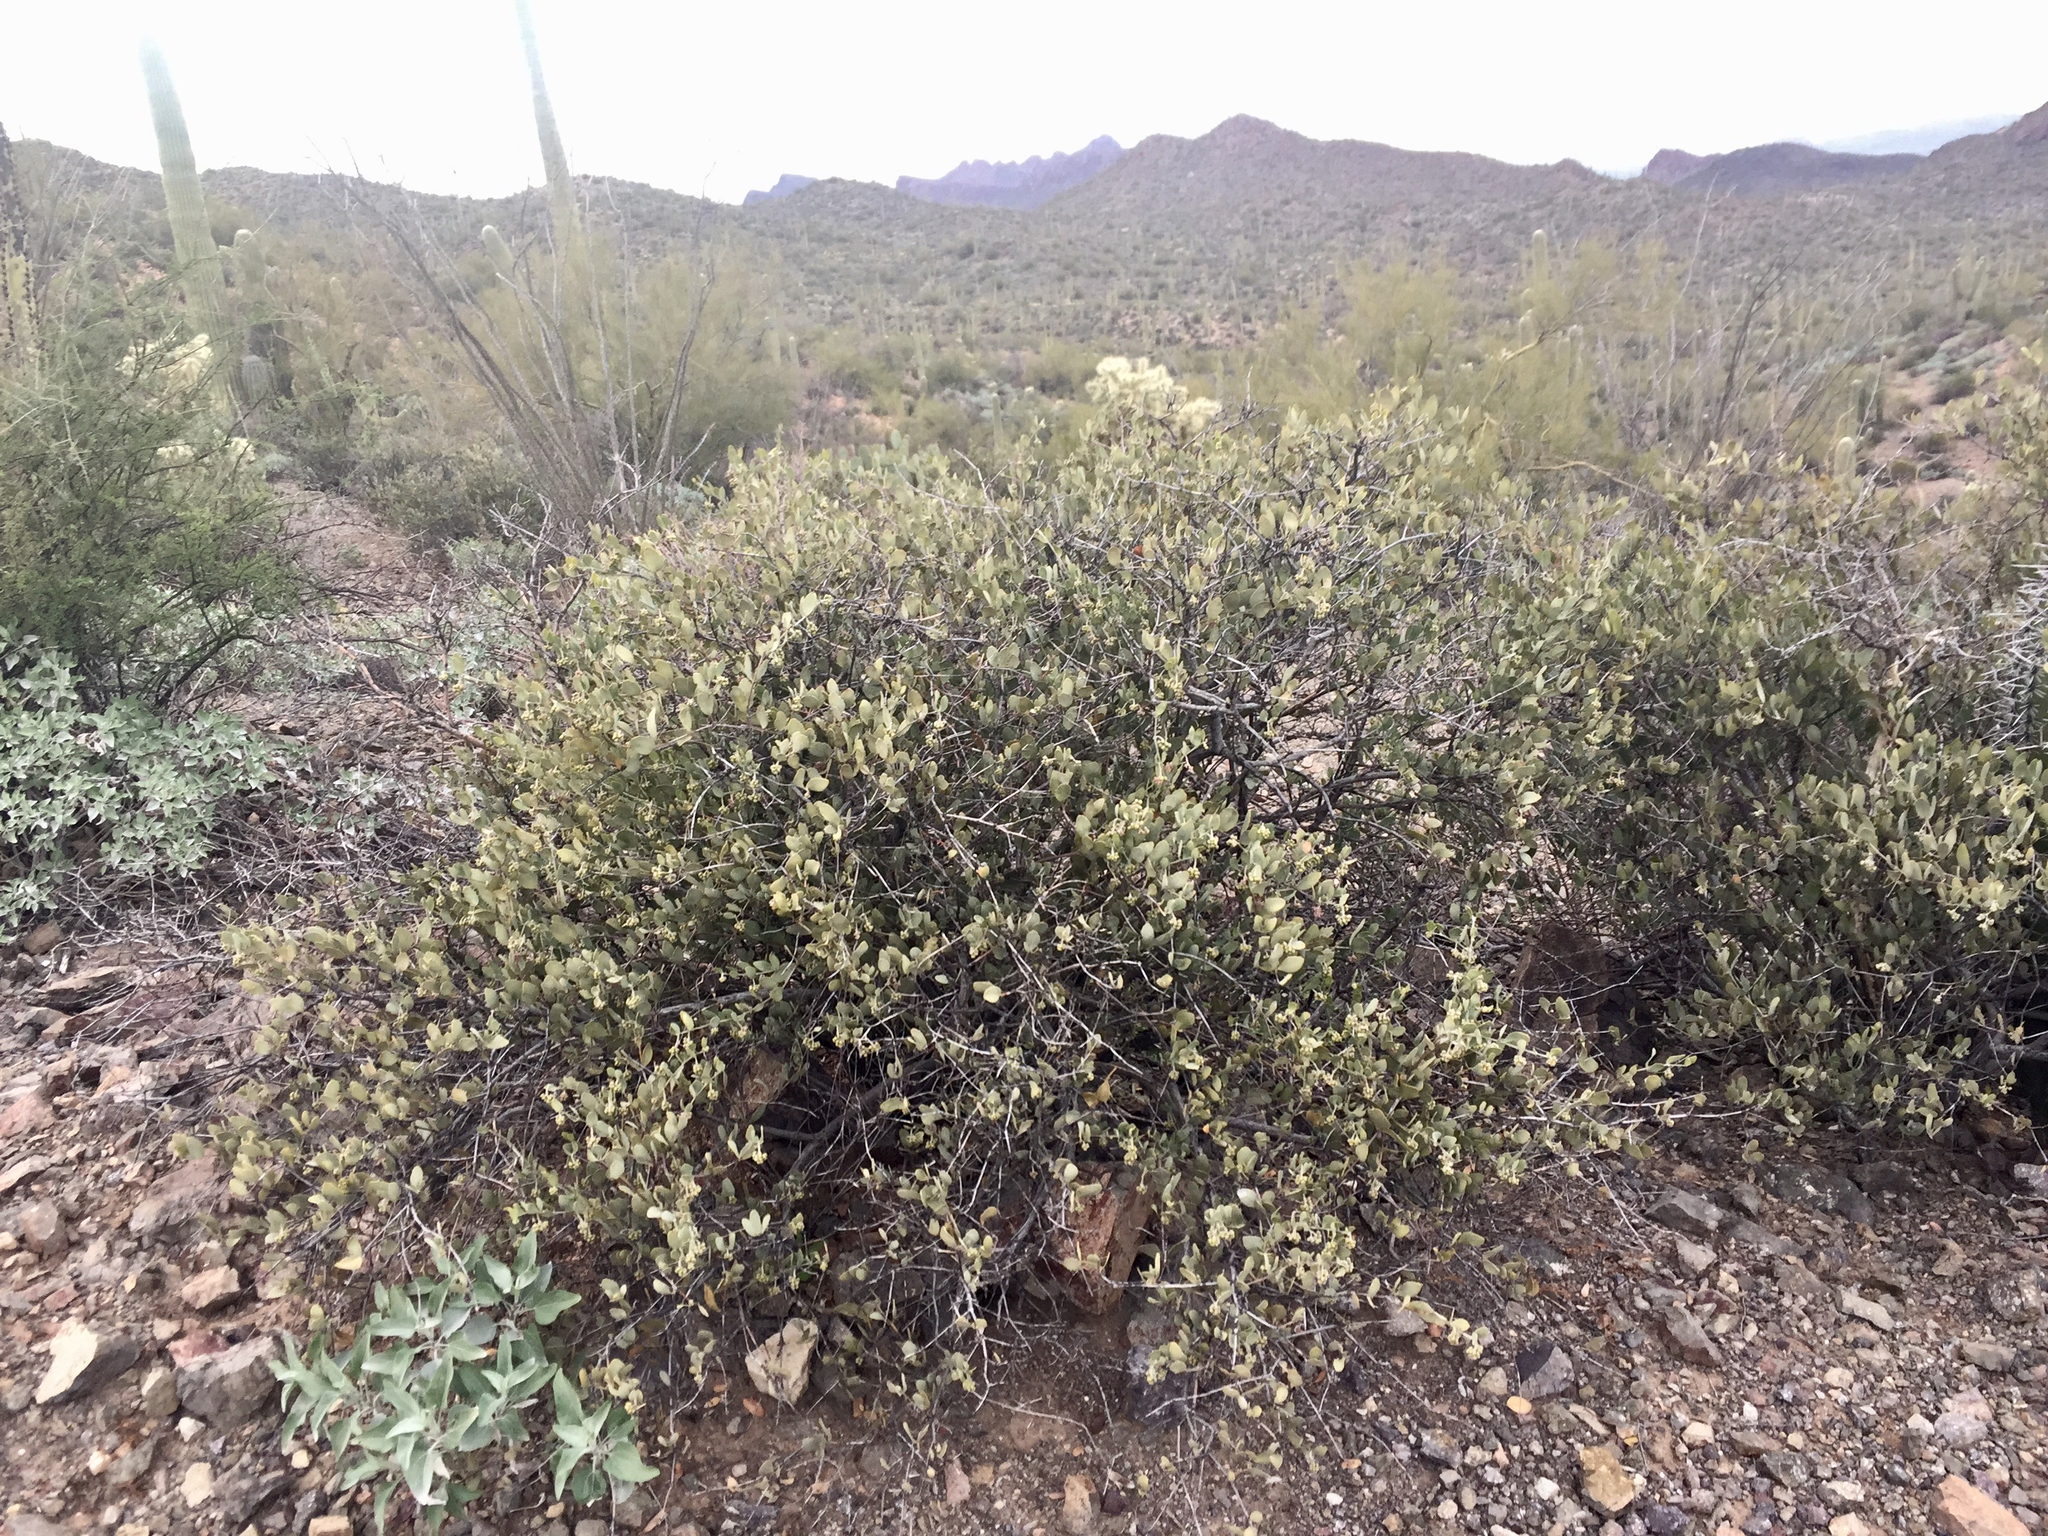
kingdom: Plantae
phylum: Tracheophyta
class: Magnoliopsida
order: Caryophyllales
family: Simmondsiaceae
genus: Simmondsia
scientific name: Simmondsia chinensis
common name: Jojoba
